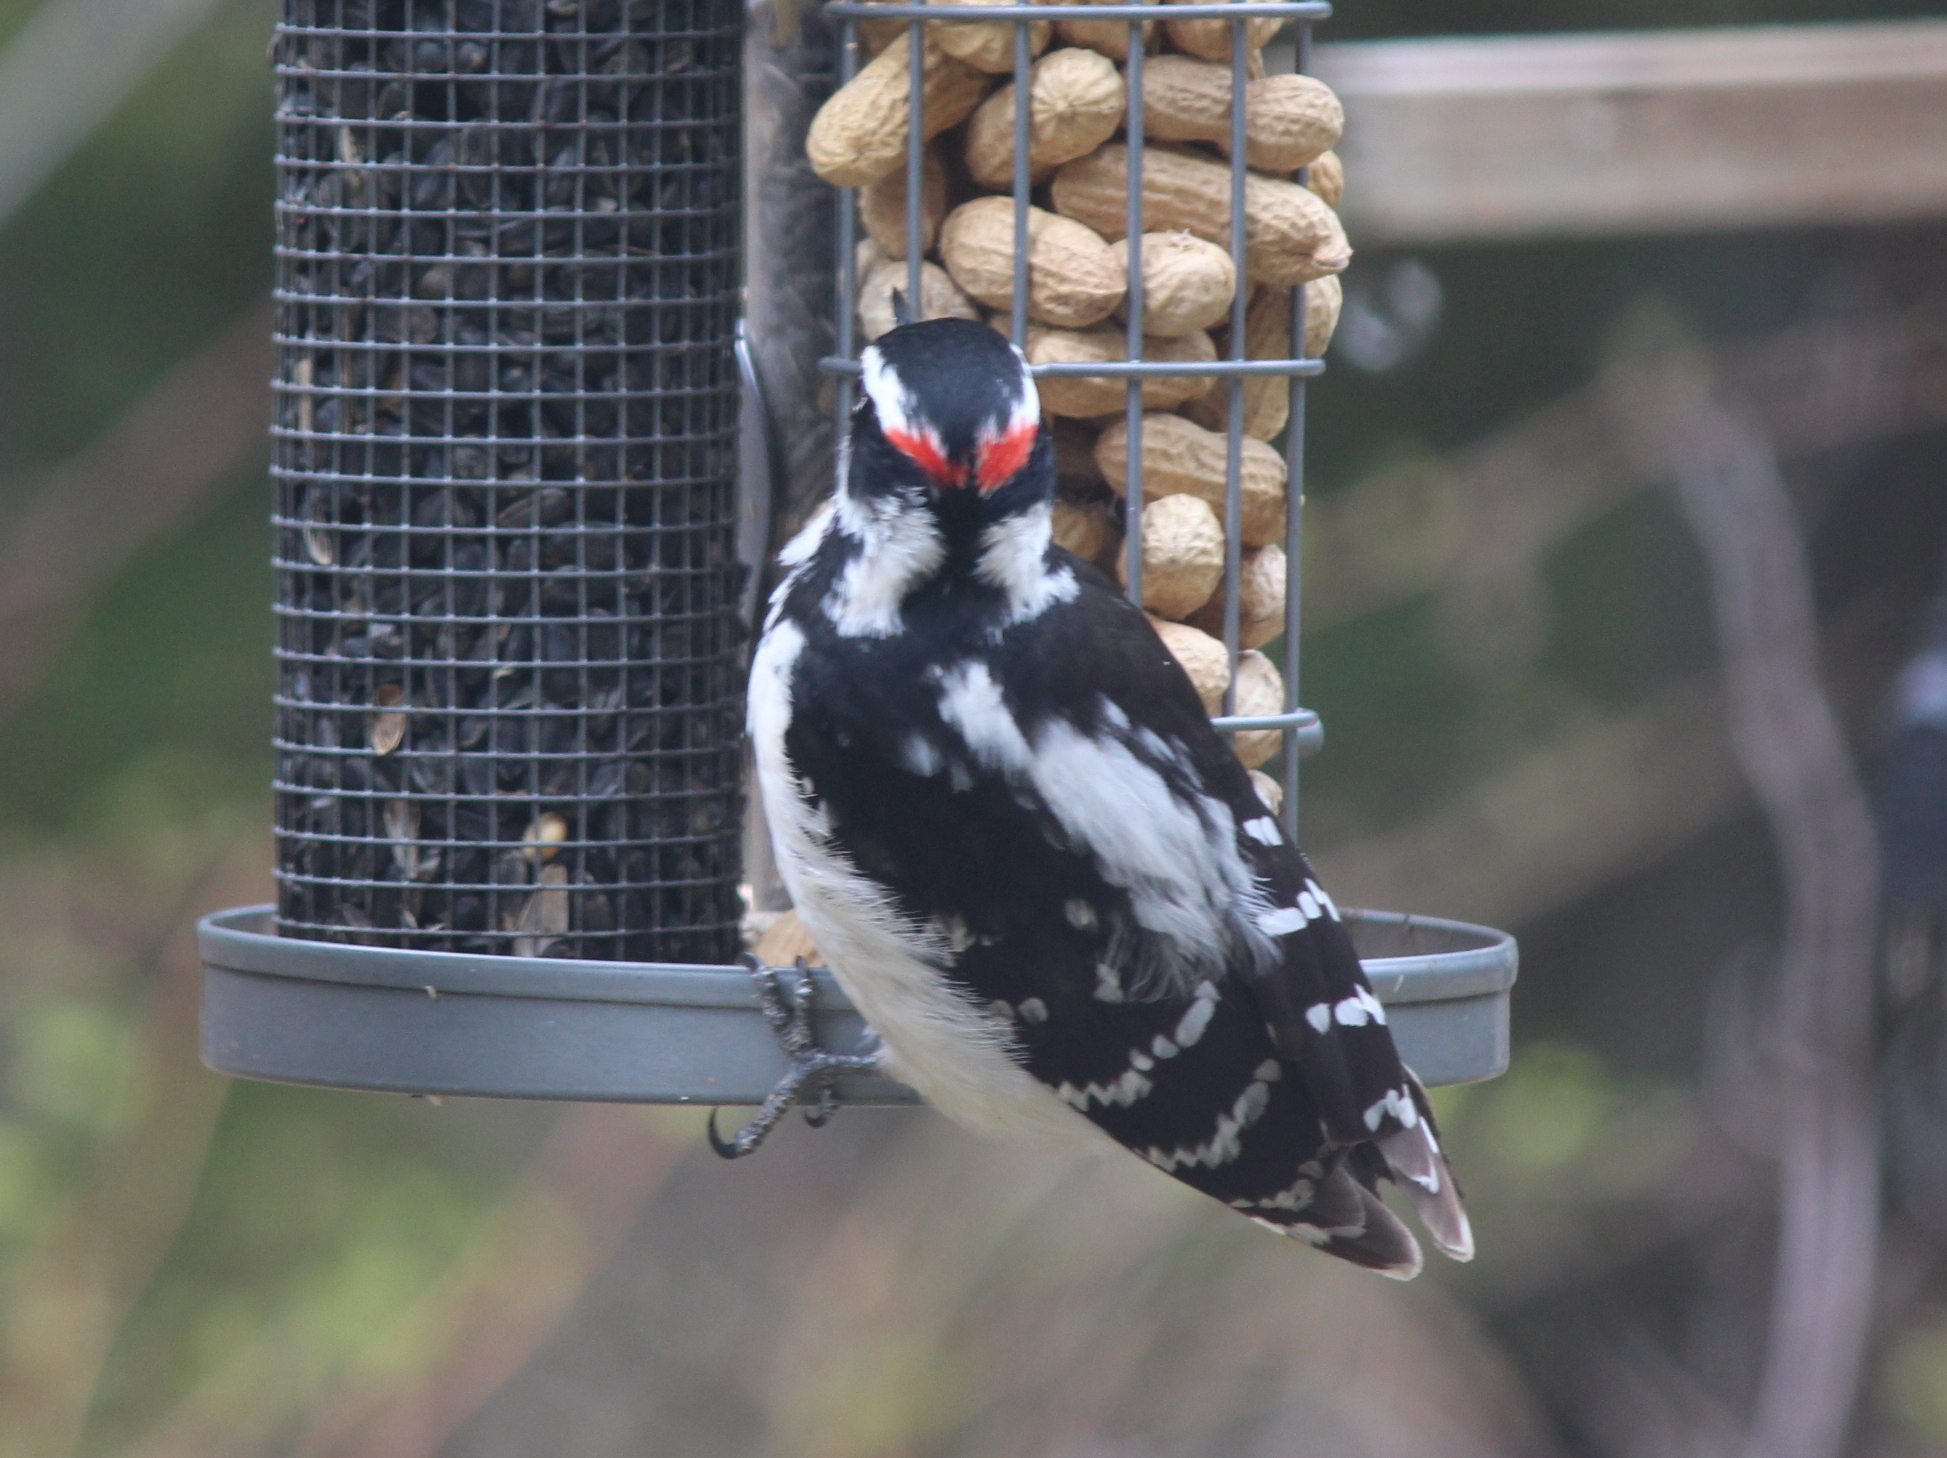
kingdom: Animalia
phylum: Chordata
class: Aves
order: Piciformes
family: Picidae
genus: Leuconotopicus
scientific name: Leuconotopicus villosus
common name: Hairy woodpecker
